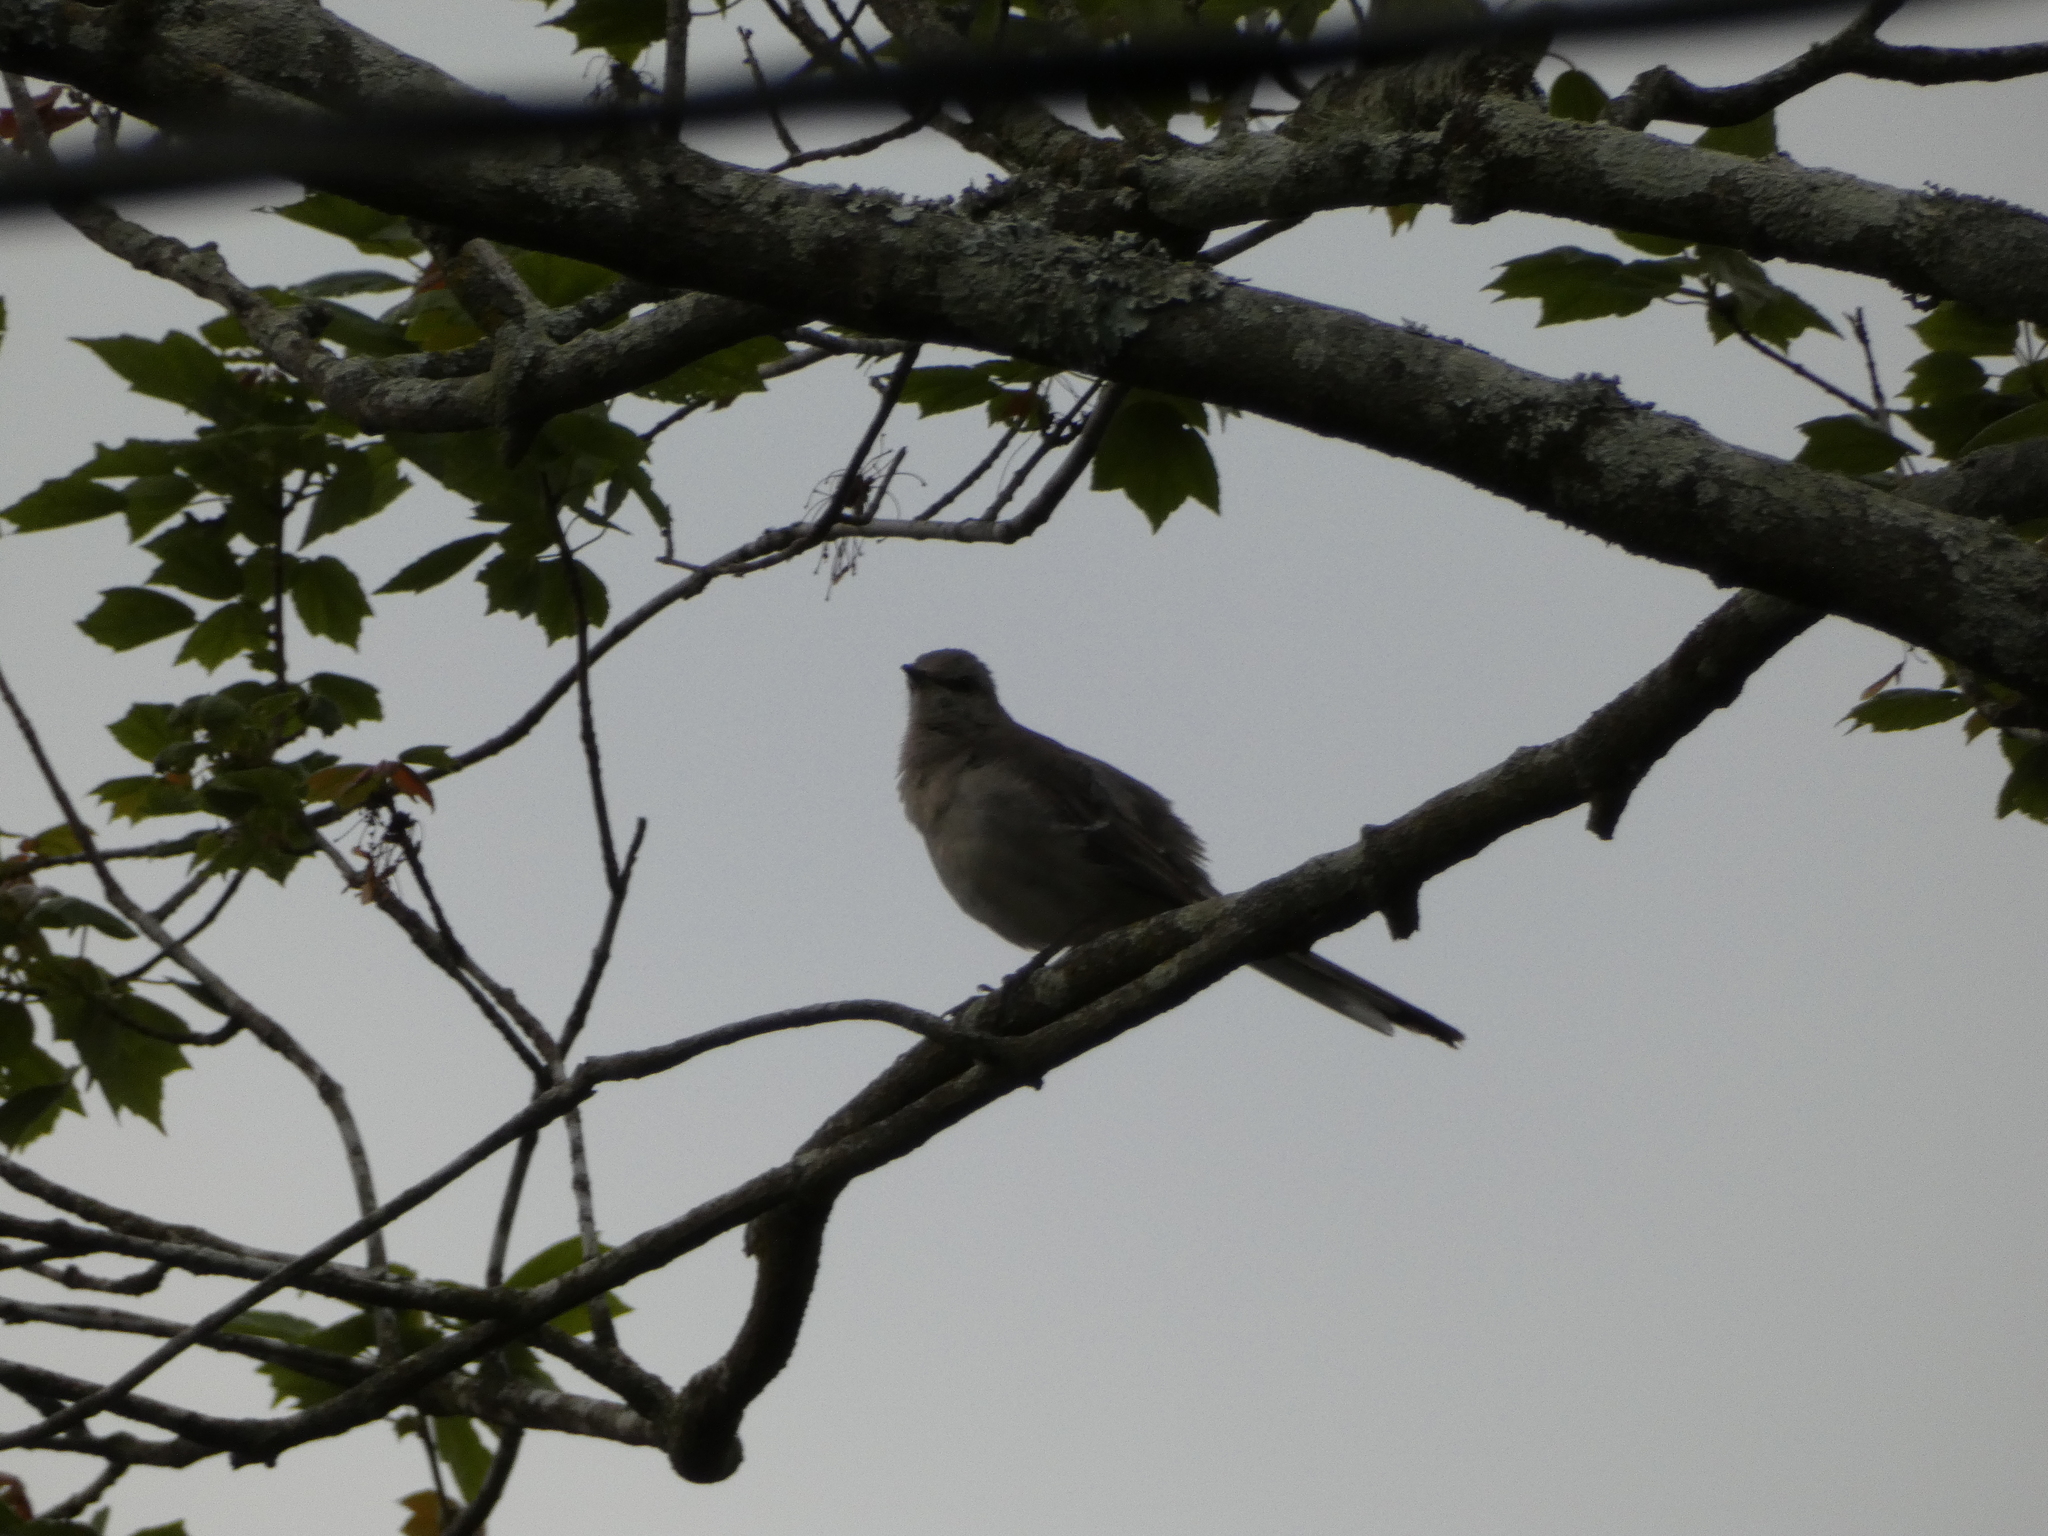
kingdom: Animalia
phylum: Chordata
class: Aves
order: Passeriformes
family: Mimidae
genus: Mimus
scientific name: Mimus polyglottos
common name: Northern mockingbird
